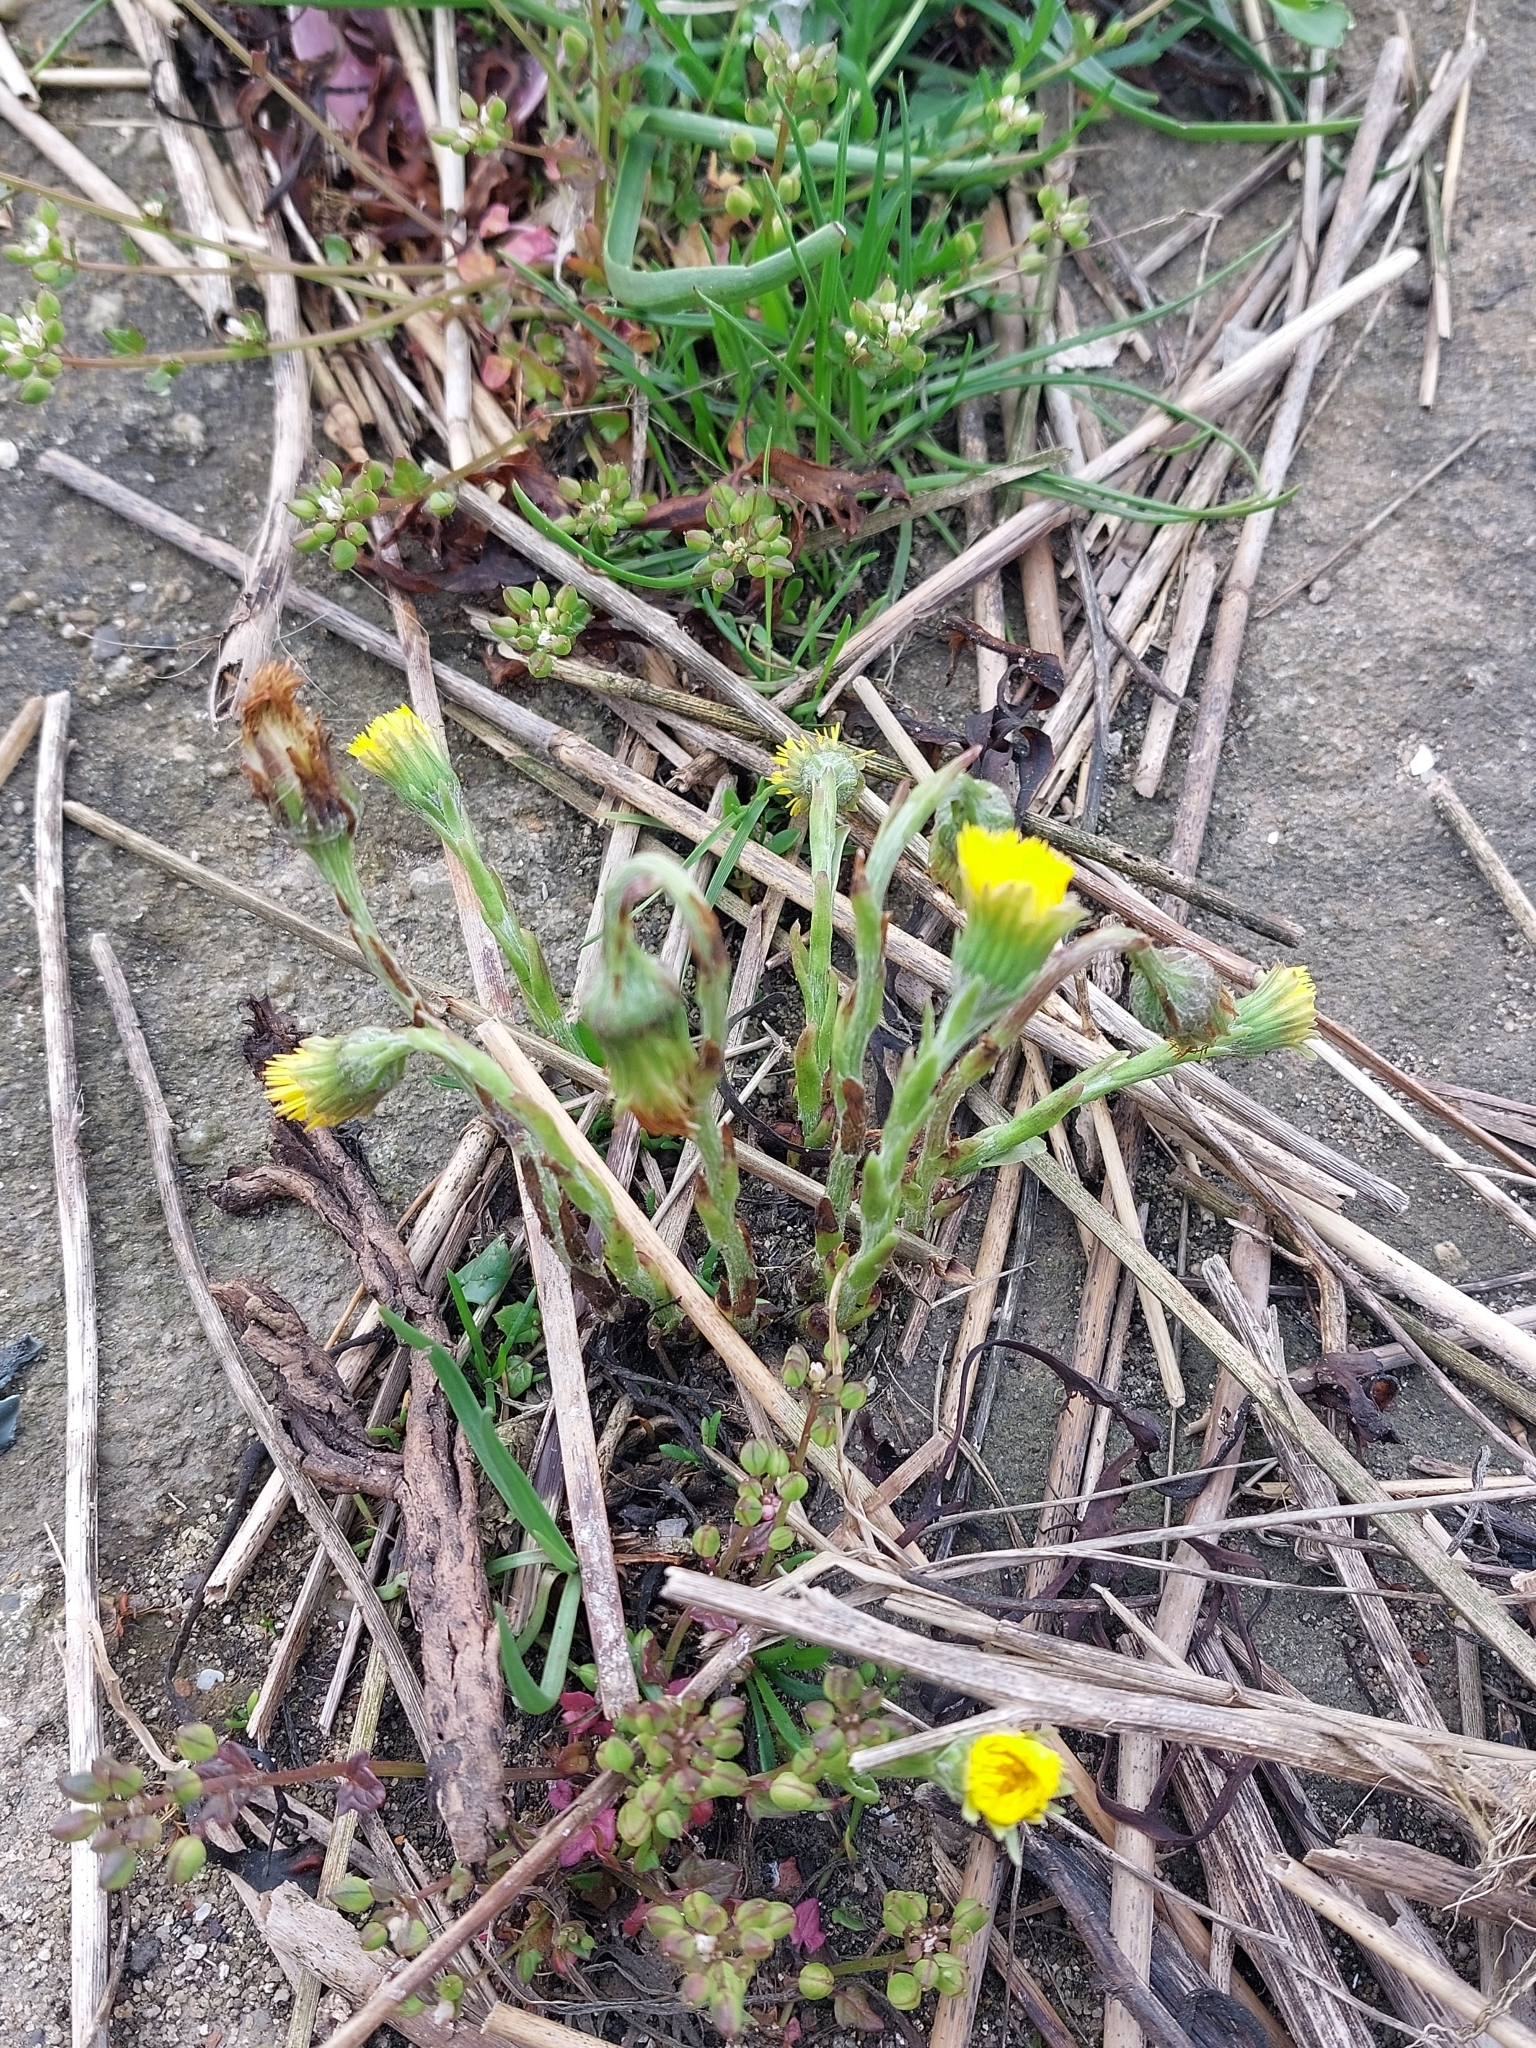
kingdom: Plantae
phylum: Tracheophyta
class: Magnoliopsida
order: Asterales
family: Asteraceae
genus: Tussilago
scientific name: Tussilago farfara
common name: Coltsfoot
